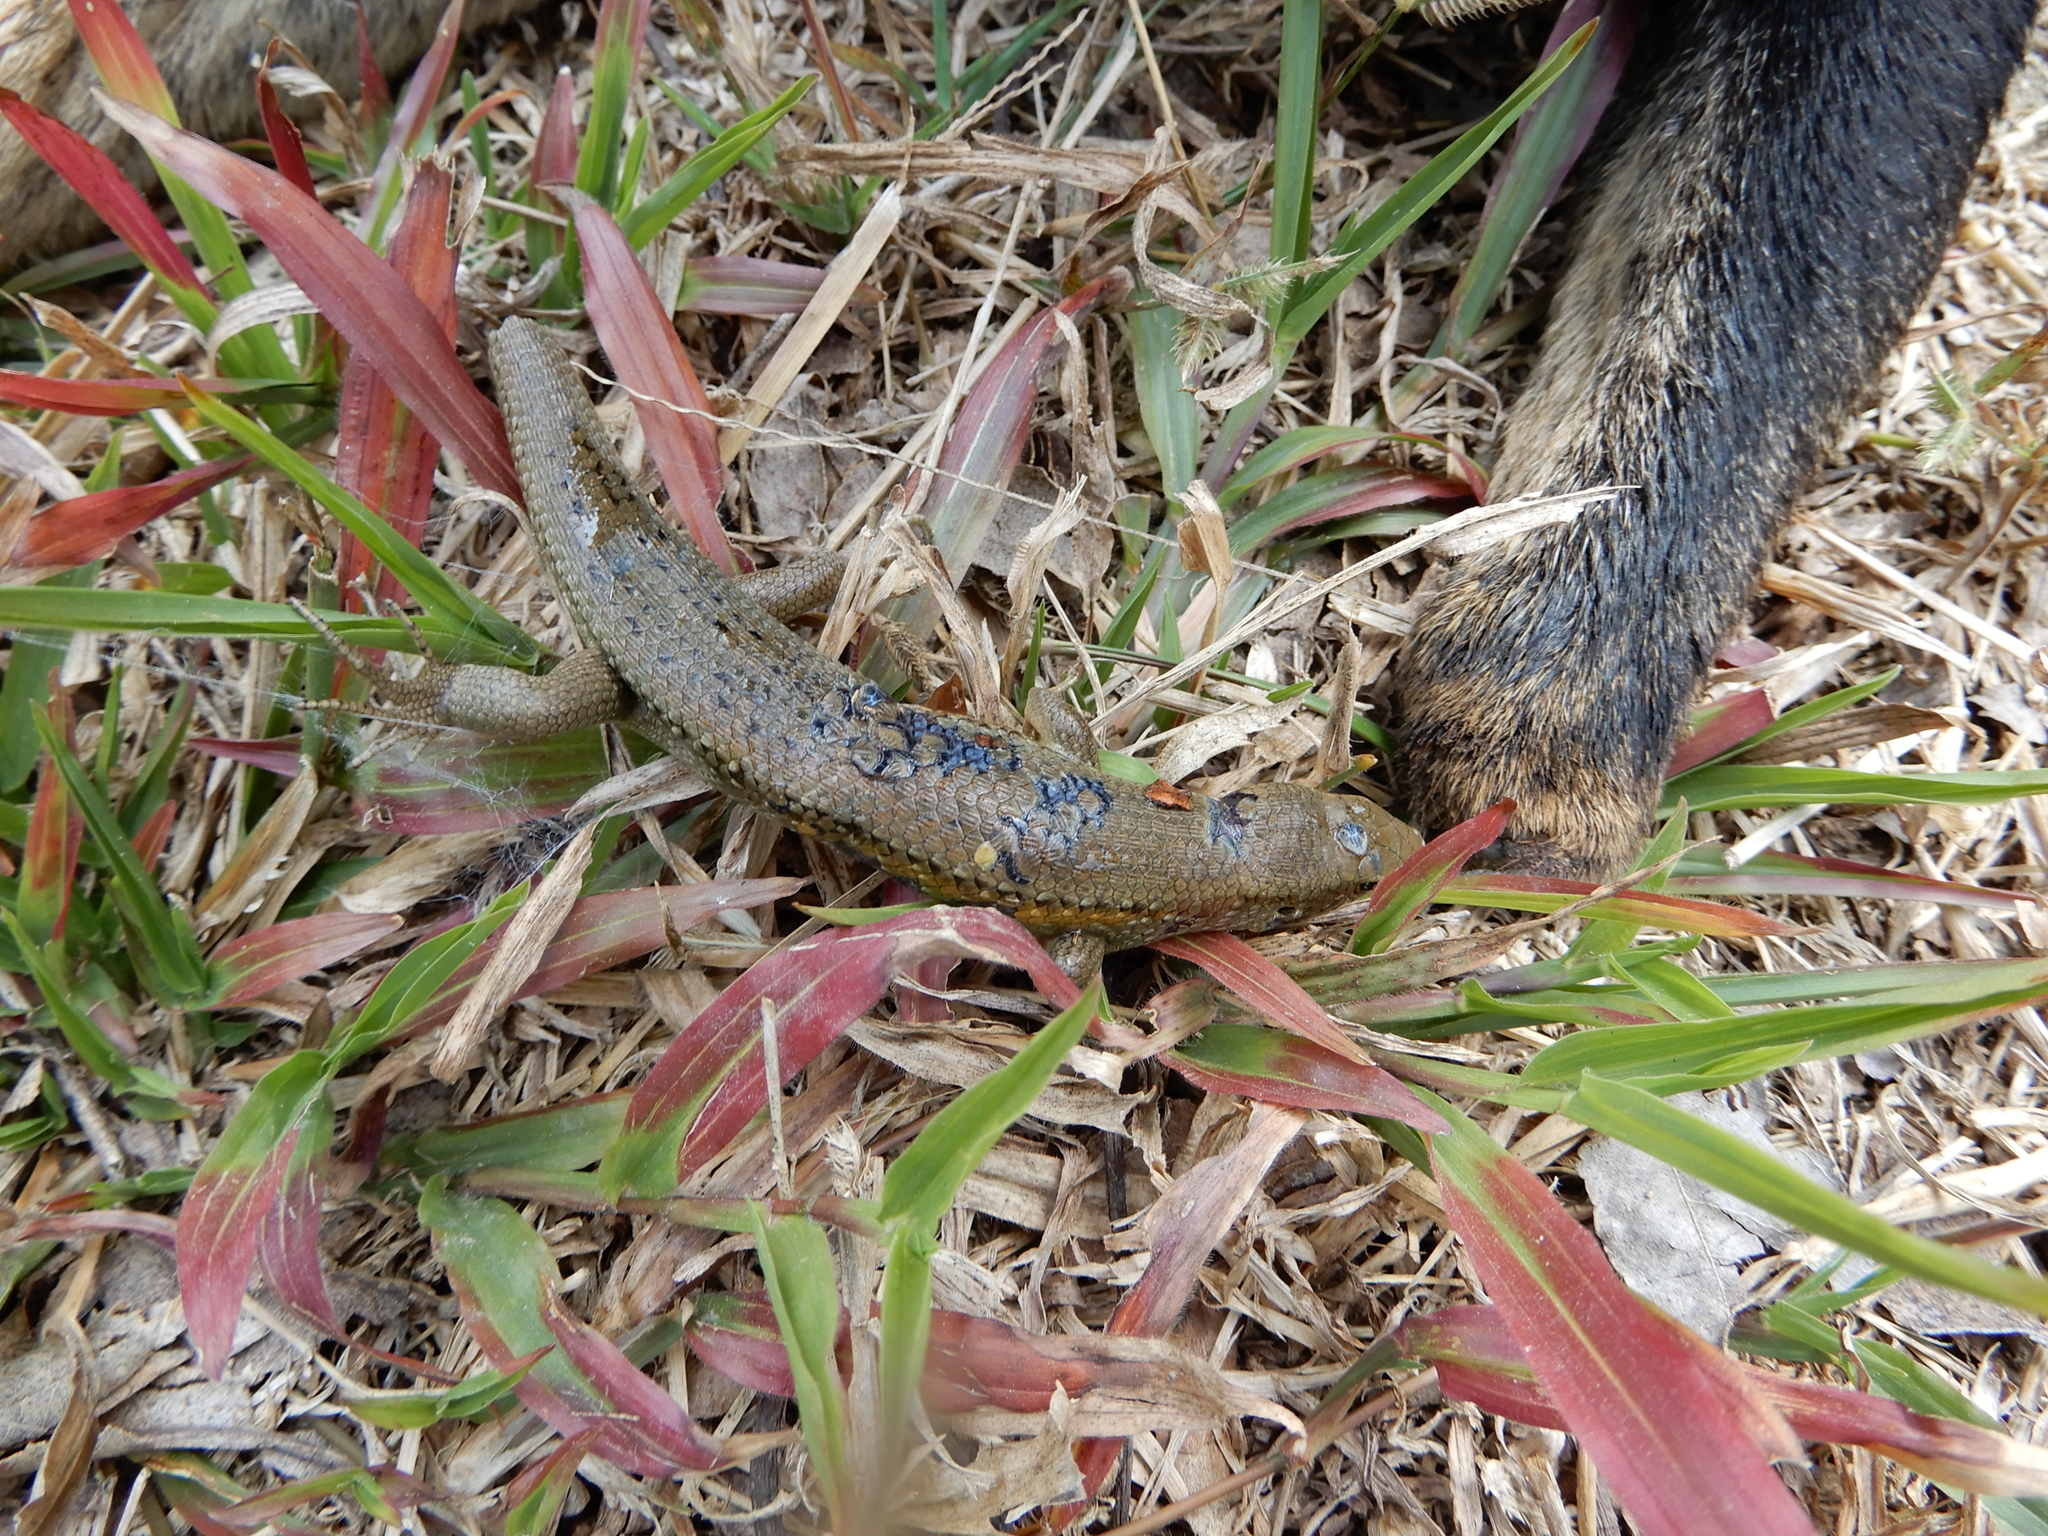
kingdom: Animalia
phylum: Chordata
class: Squamata
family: Scincidae
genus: Eutropis
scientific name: Eutropis multifasciata
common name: Common mabuya
